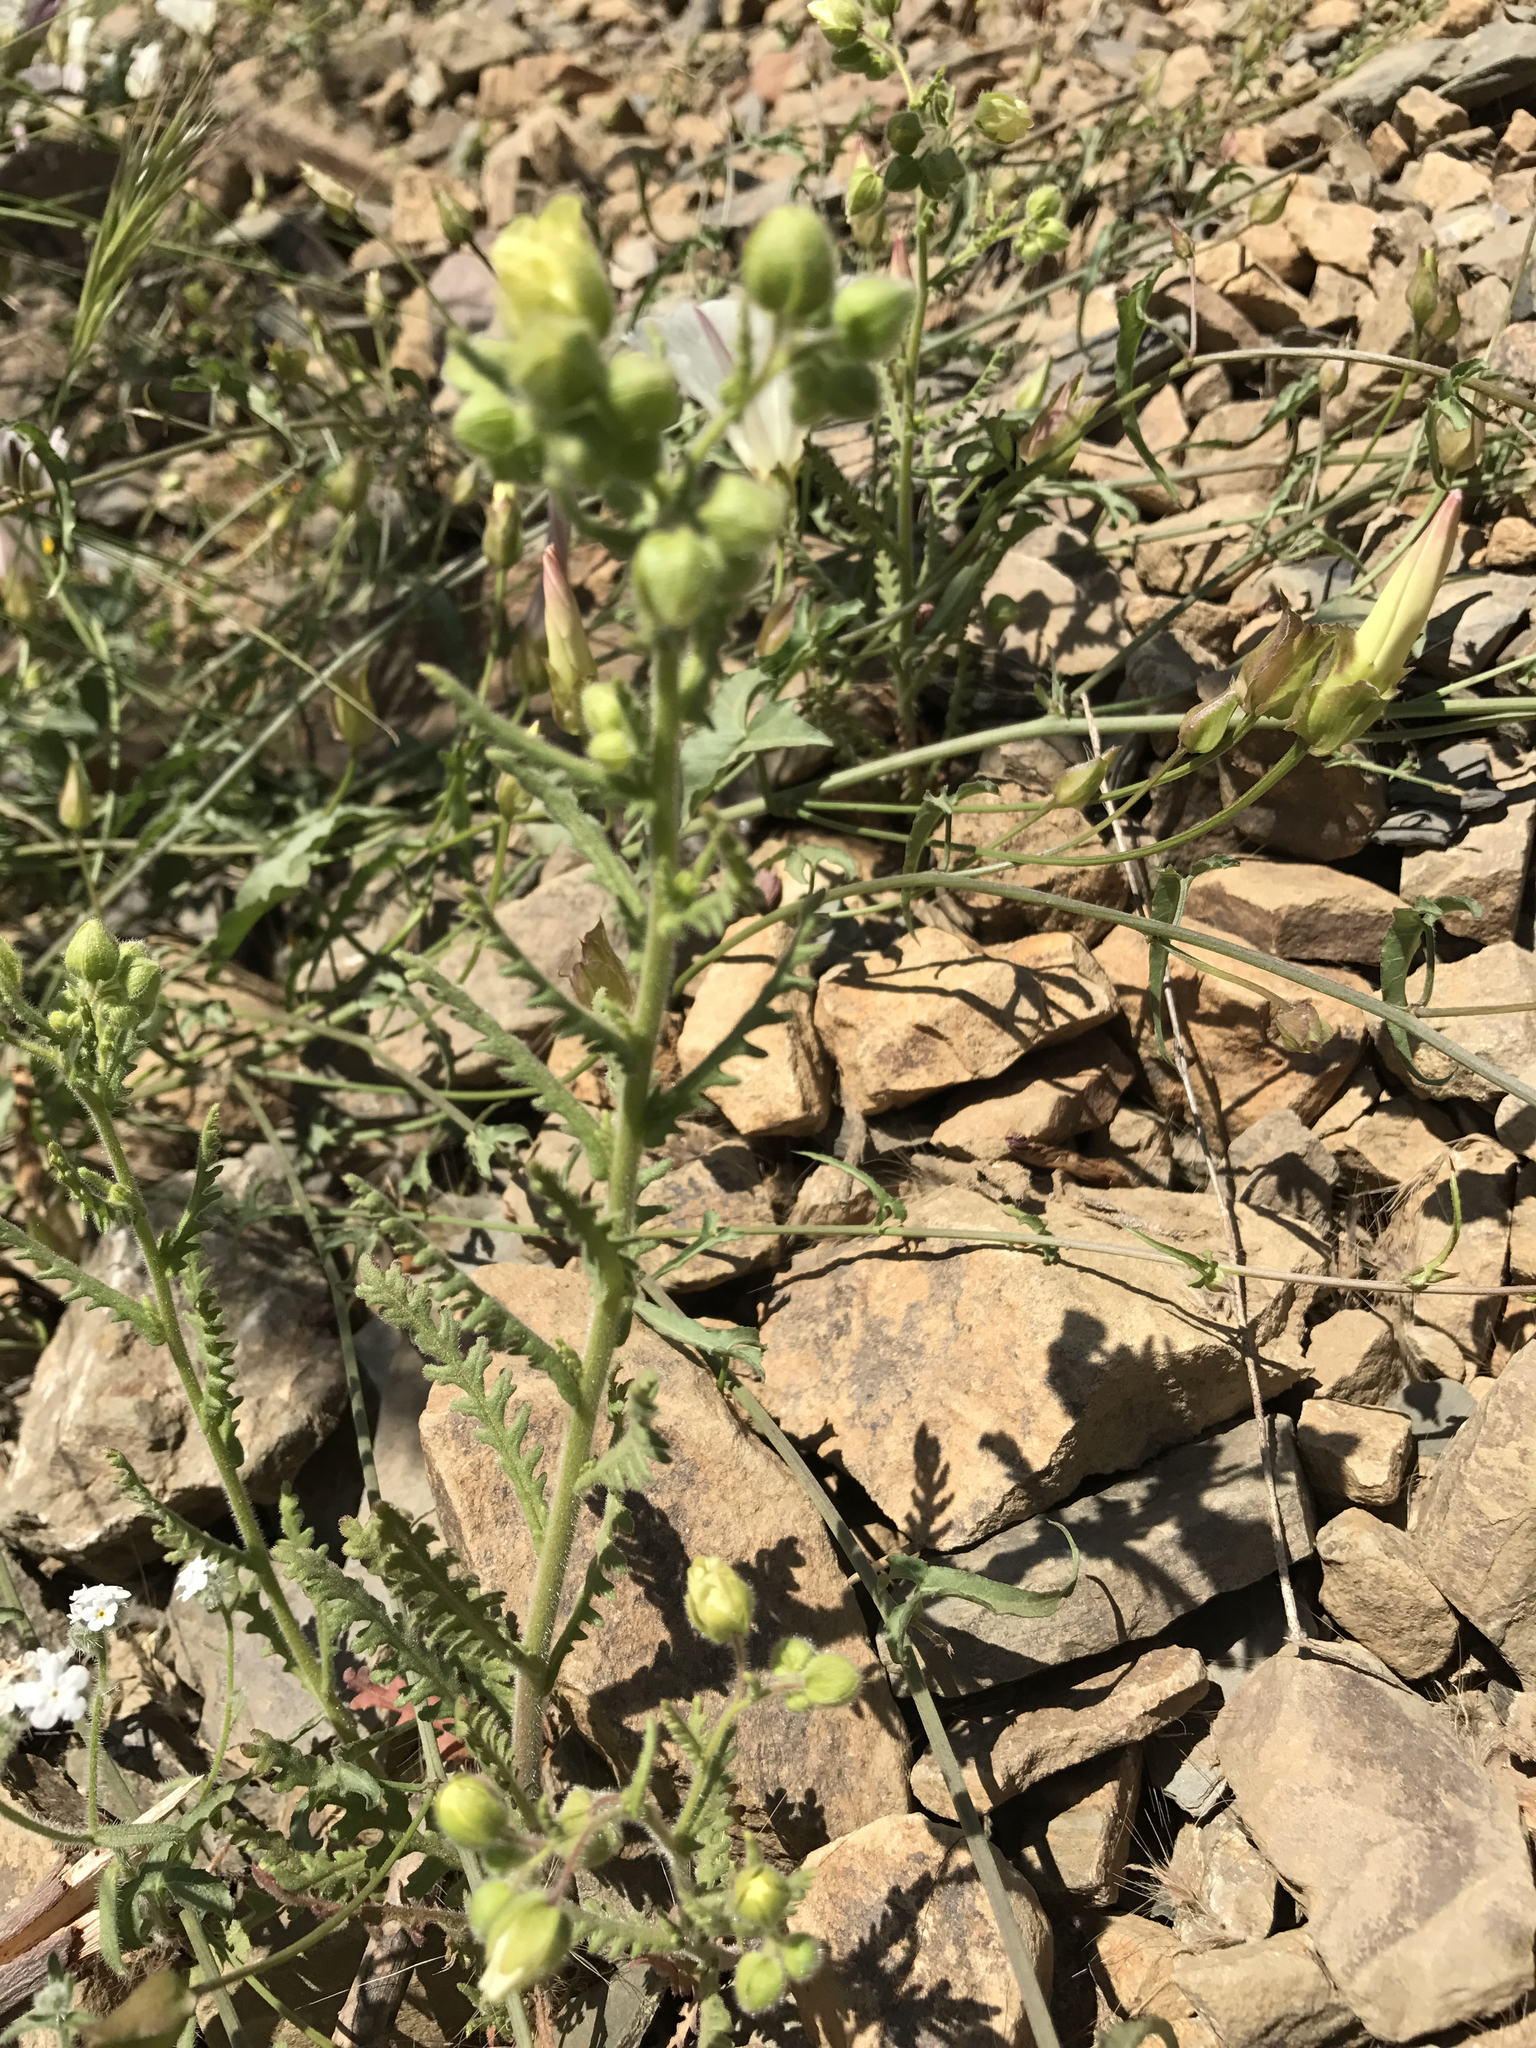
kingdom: Plantae
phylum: Tracheophyta
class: Magnoliopsida
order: Boraginales
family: Hydrophyllaceae
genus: Emmenanthe
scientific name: Emmenanthe penduliflora
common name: Whispering-bells
